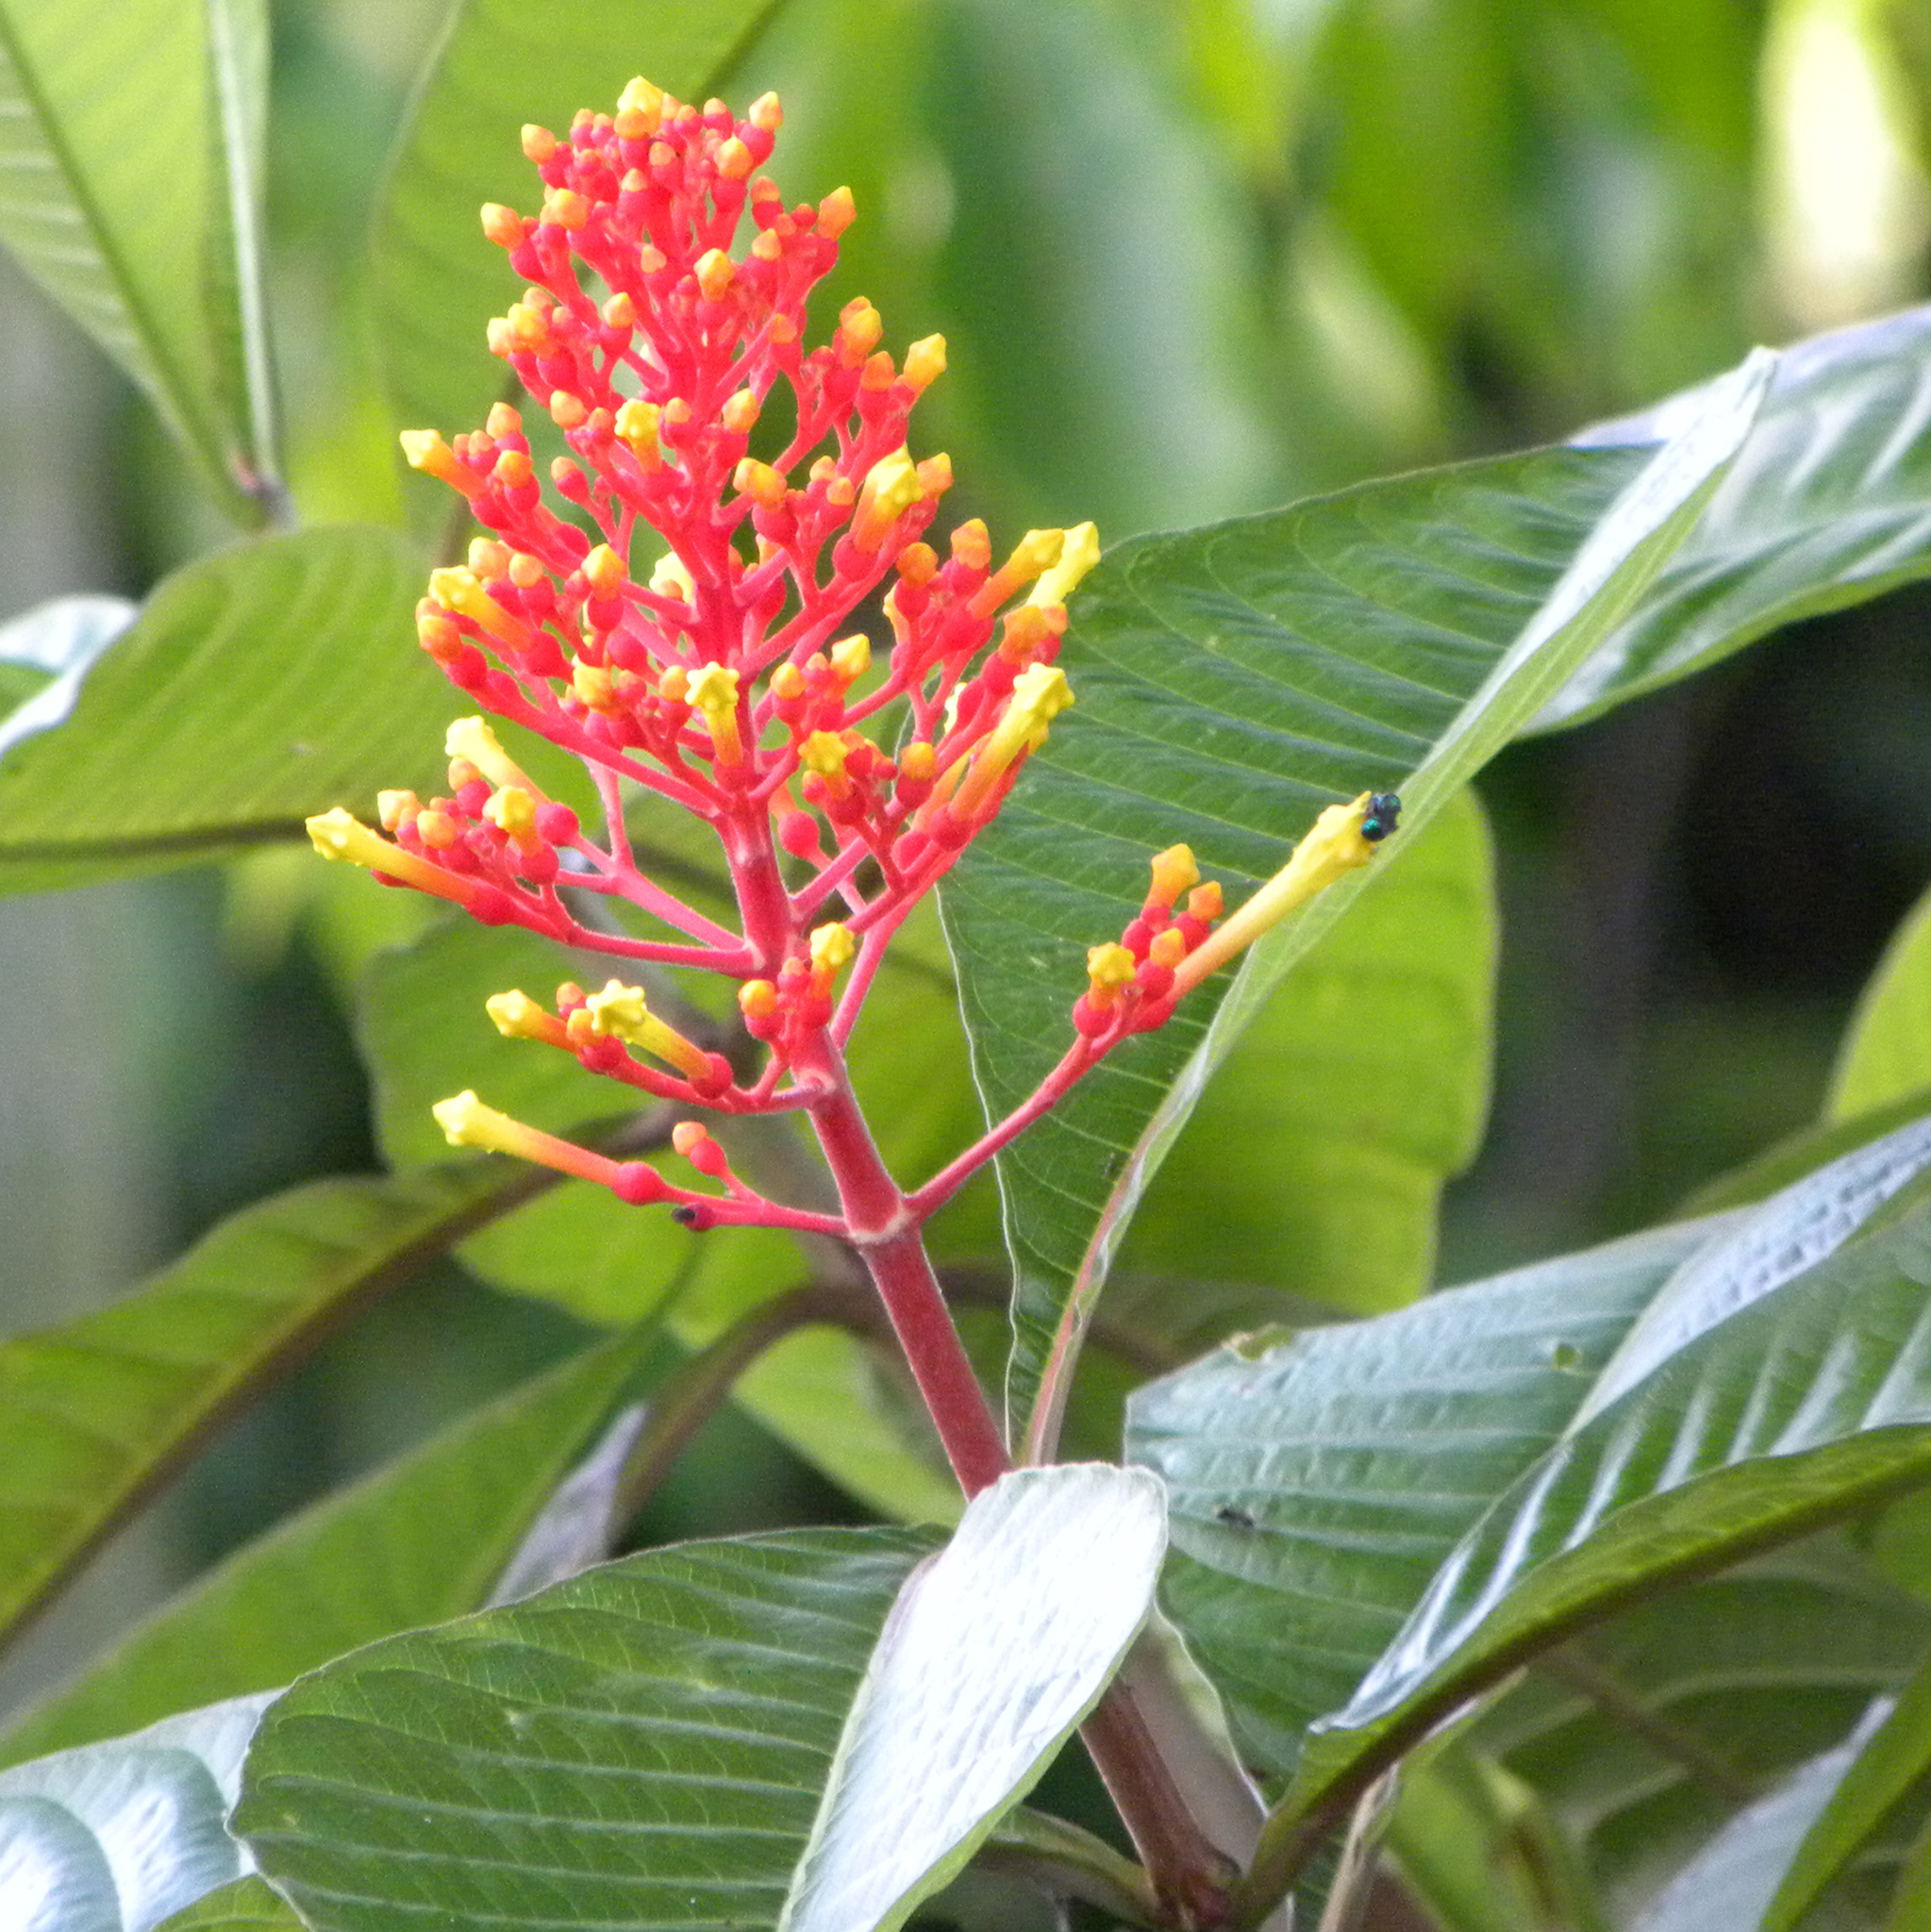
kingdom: Plantae
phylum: Tracheophyta
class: Magnoliopsida
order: Gentianales
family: Rubiaceae
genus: Isertia
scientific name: Isertia haenkeana
